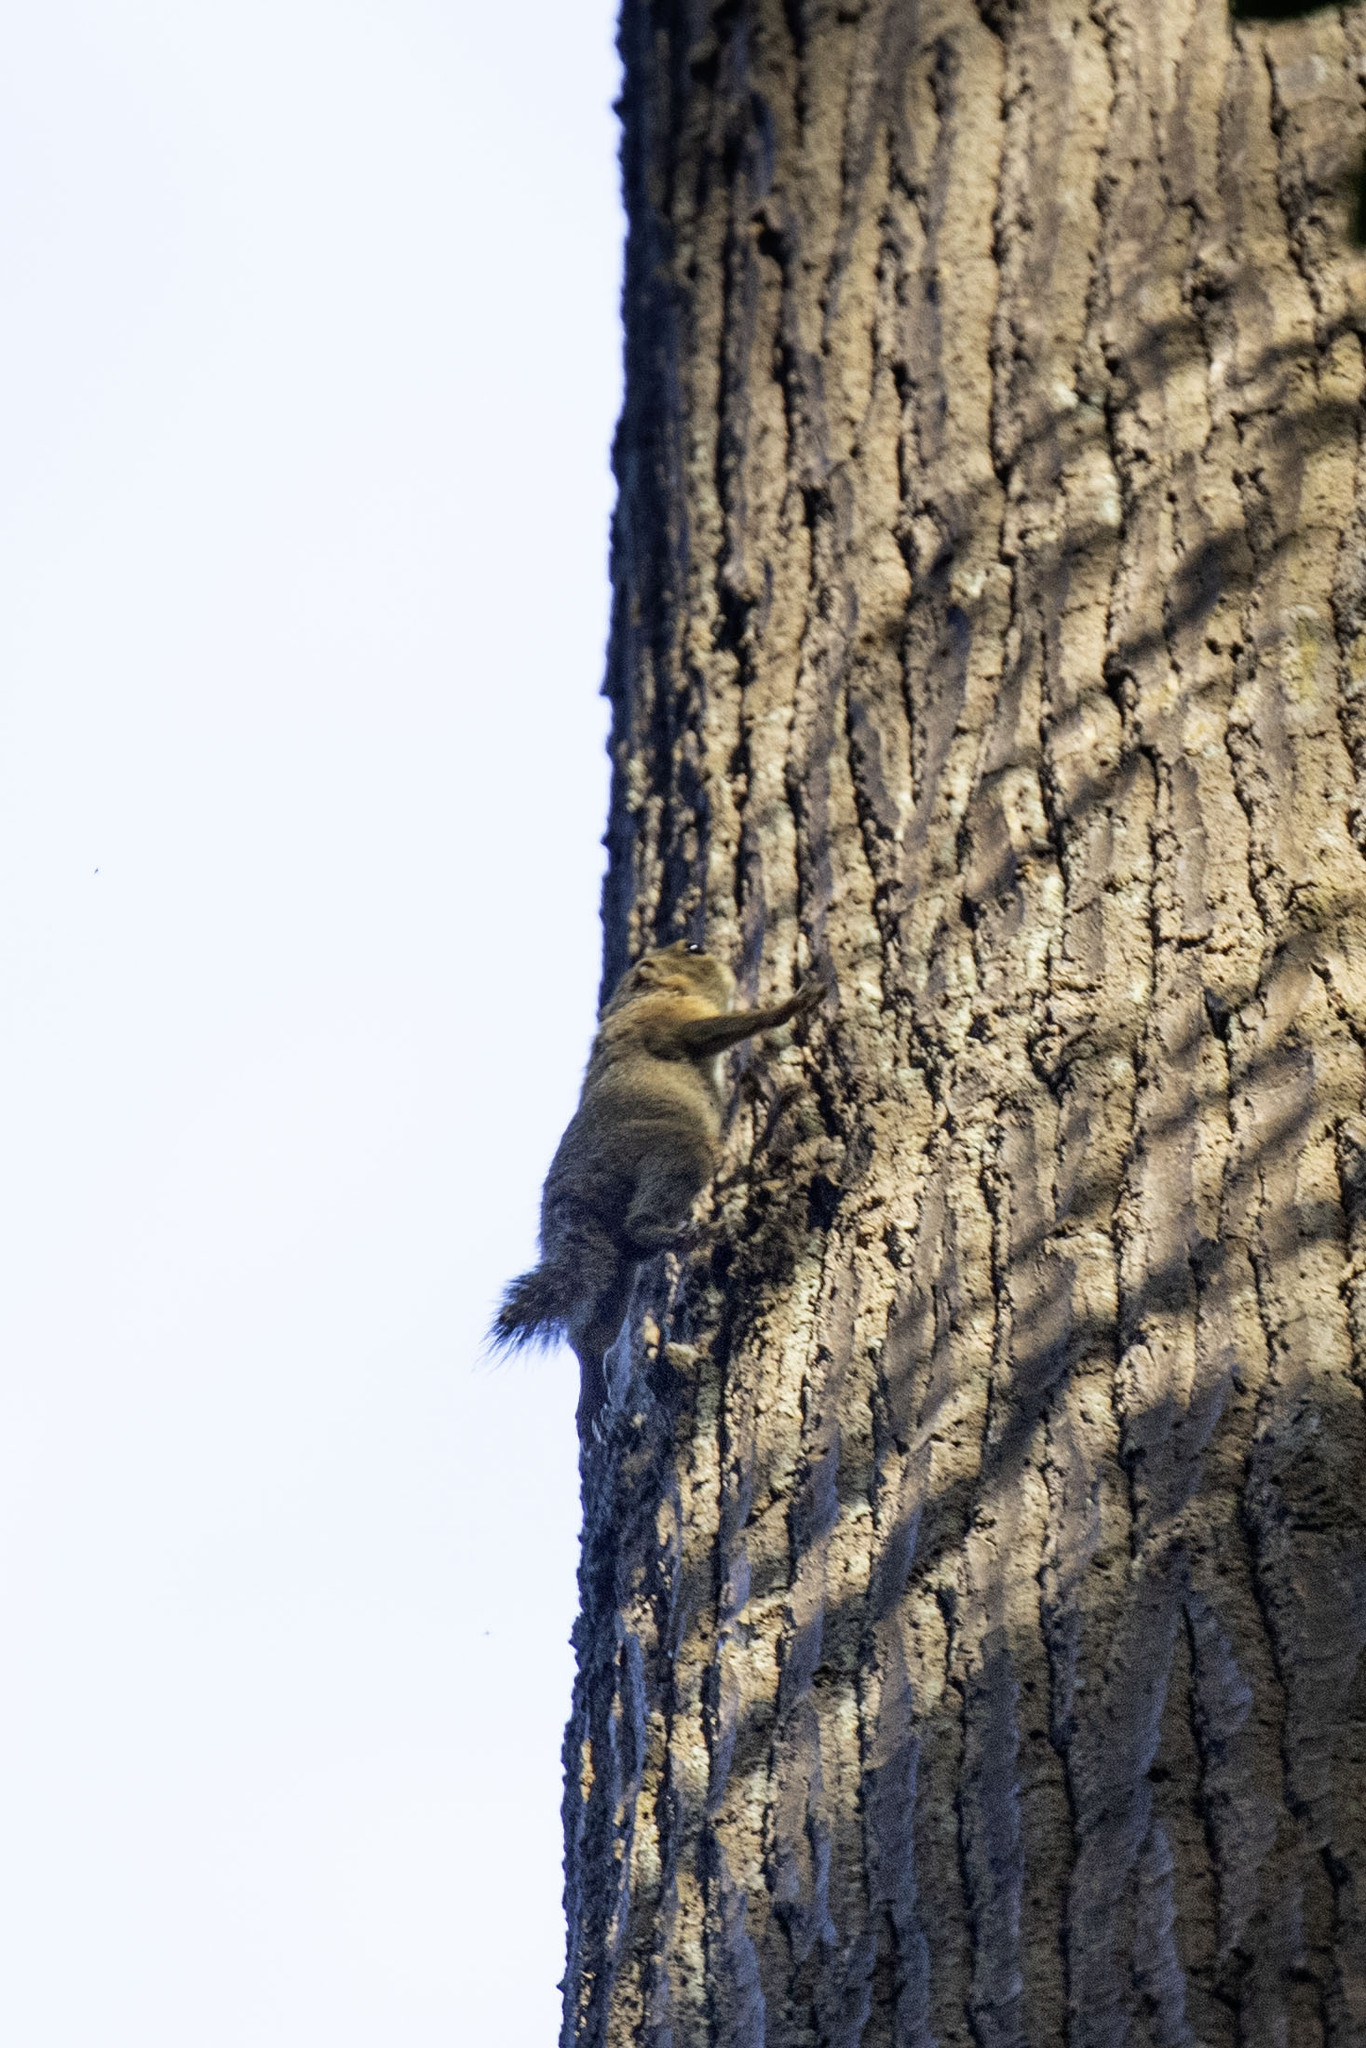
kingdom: Animalia
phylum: Chordata
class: Mammalia
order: Rodentia
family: Sciuridae
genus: Sundasciurus
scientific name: Sundasciurus tenuis
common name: Slender squirrel
